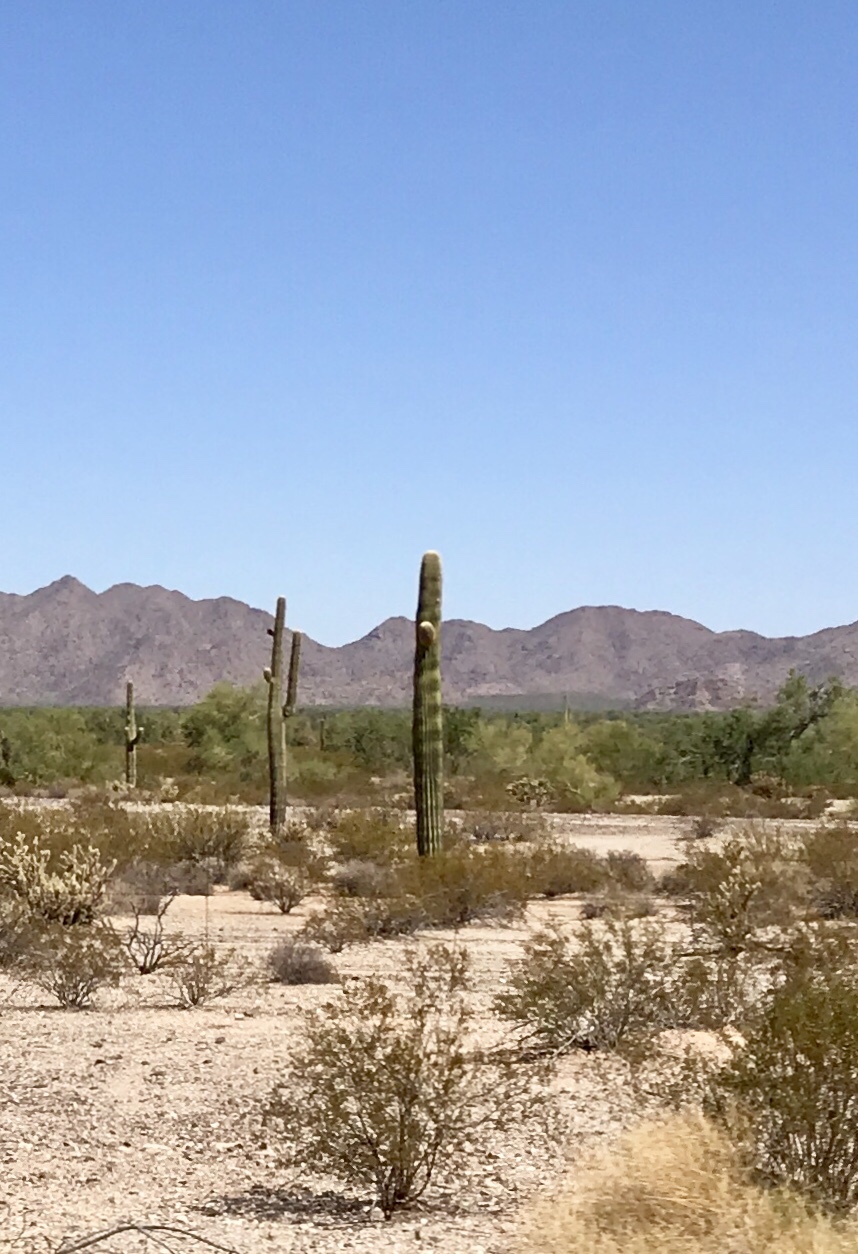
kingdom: Plantae
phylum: Tracheophyta
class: Magnoliopsida
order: Caryophyllales
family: Cactaceae
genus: Carnegiea
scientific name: Carnegiea gigantea
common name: Saguaro
